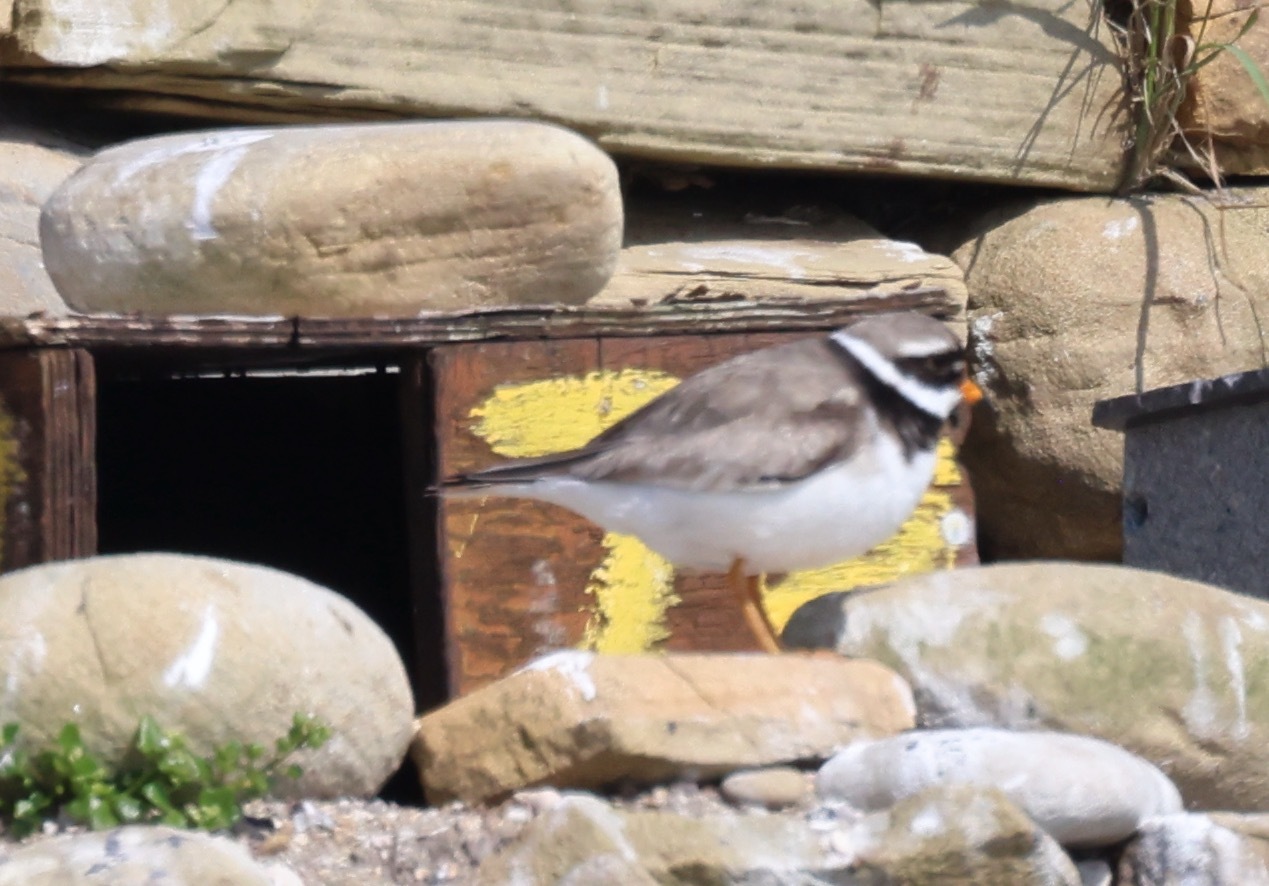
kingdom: Animalia
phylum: Chordata
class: Aves
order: Charadriiformes
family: Charadriidae
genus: Charadrius
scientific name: Charadrius hiaticula
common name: Common ringed plover
